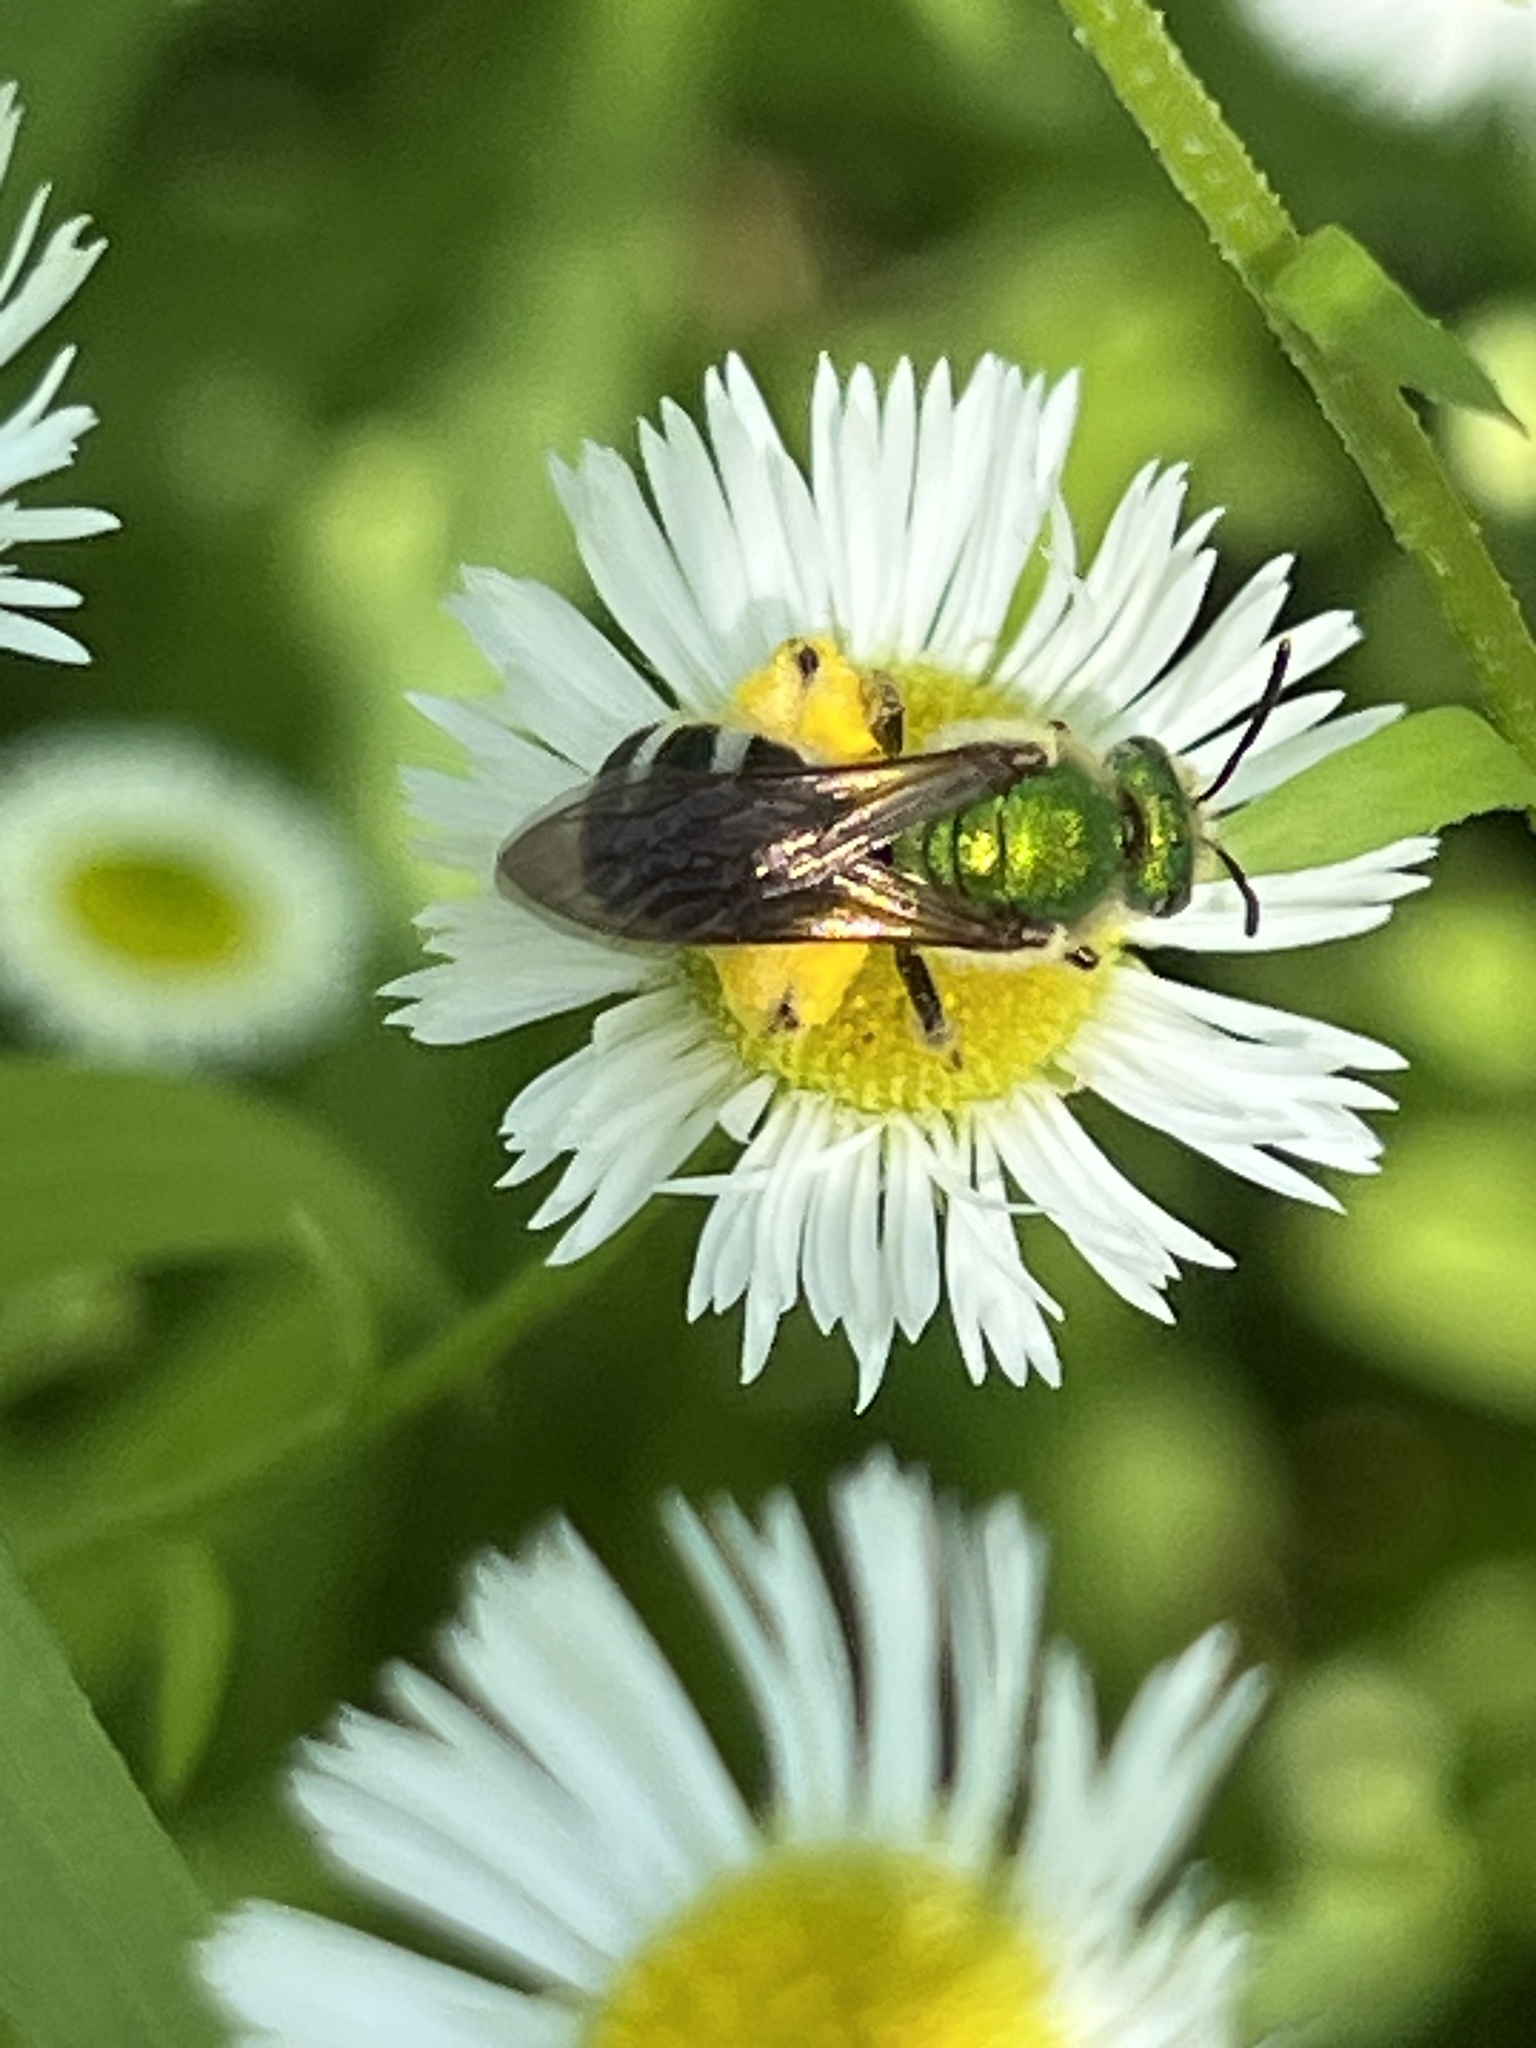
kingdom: Animalia
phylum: Arthropoda
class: Insecta
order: Hymenoptera
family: Halictidae
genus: Agapostemon
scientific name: Agapostemon virescens
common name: Bicolored striped sweat bee
